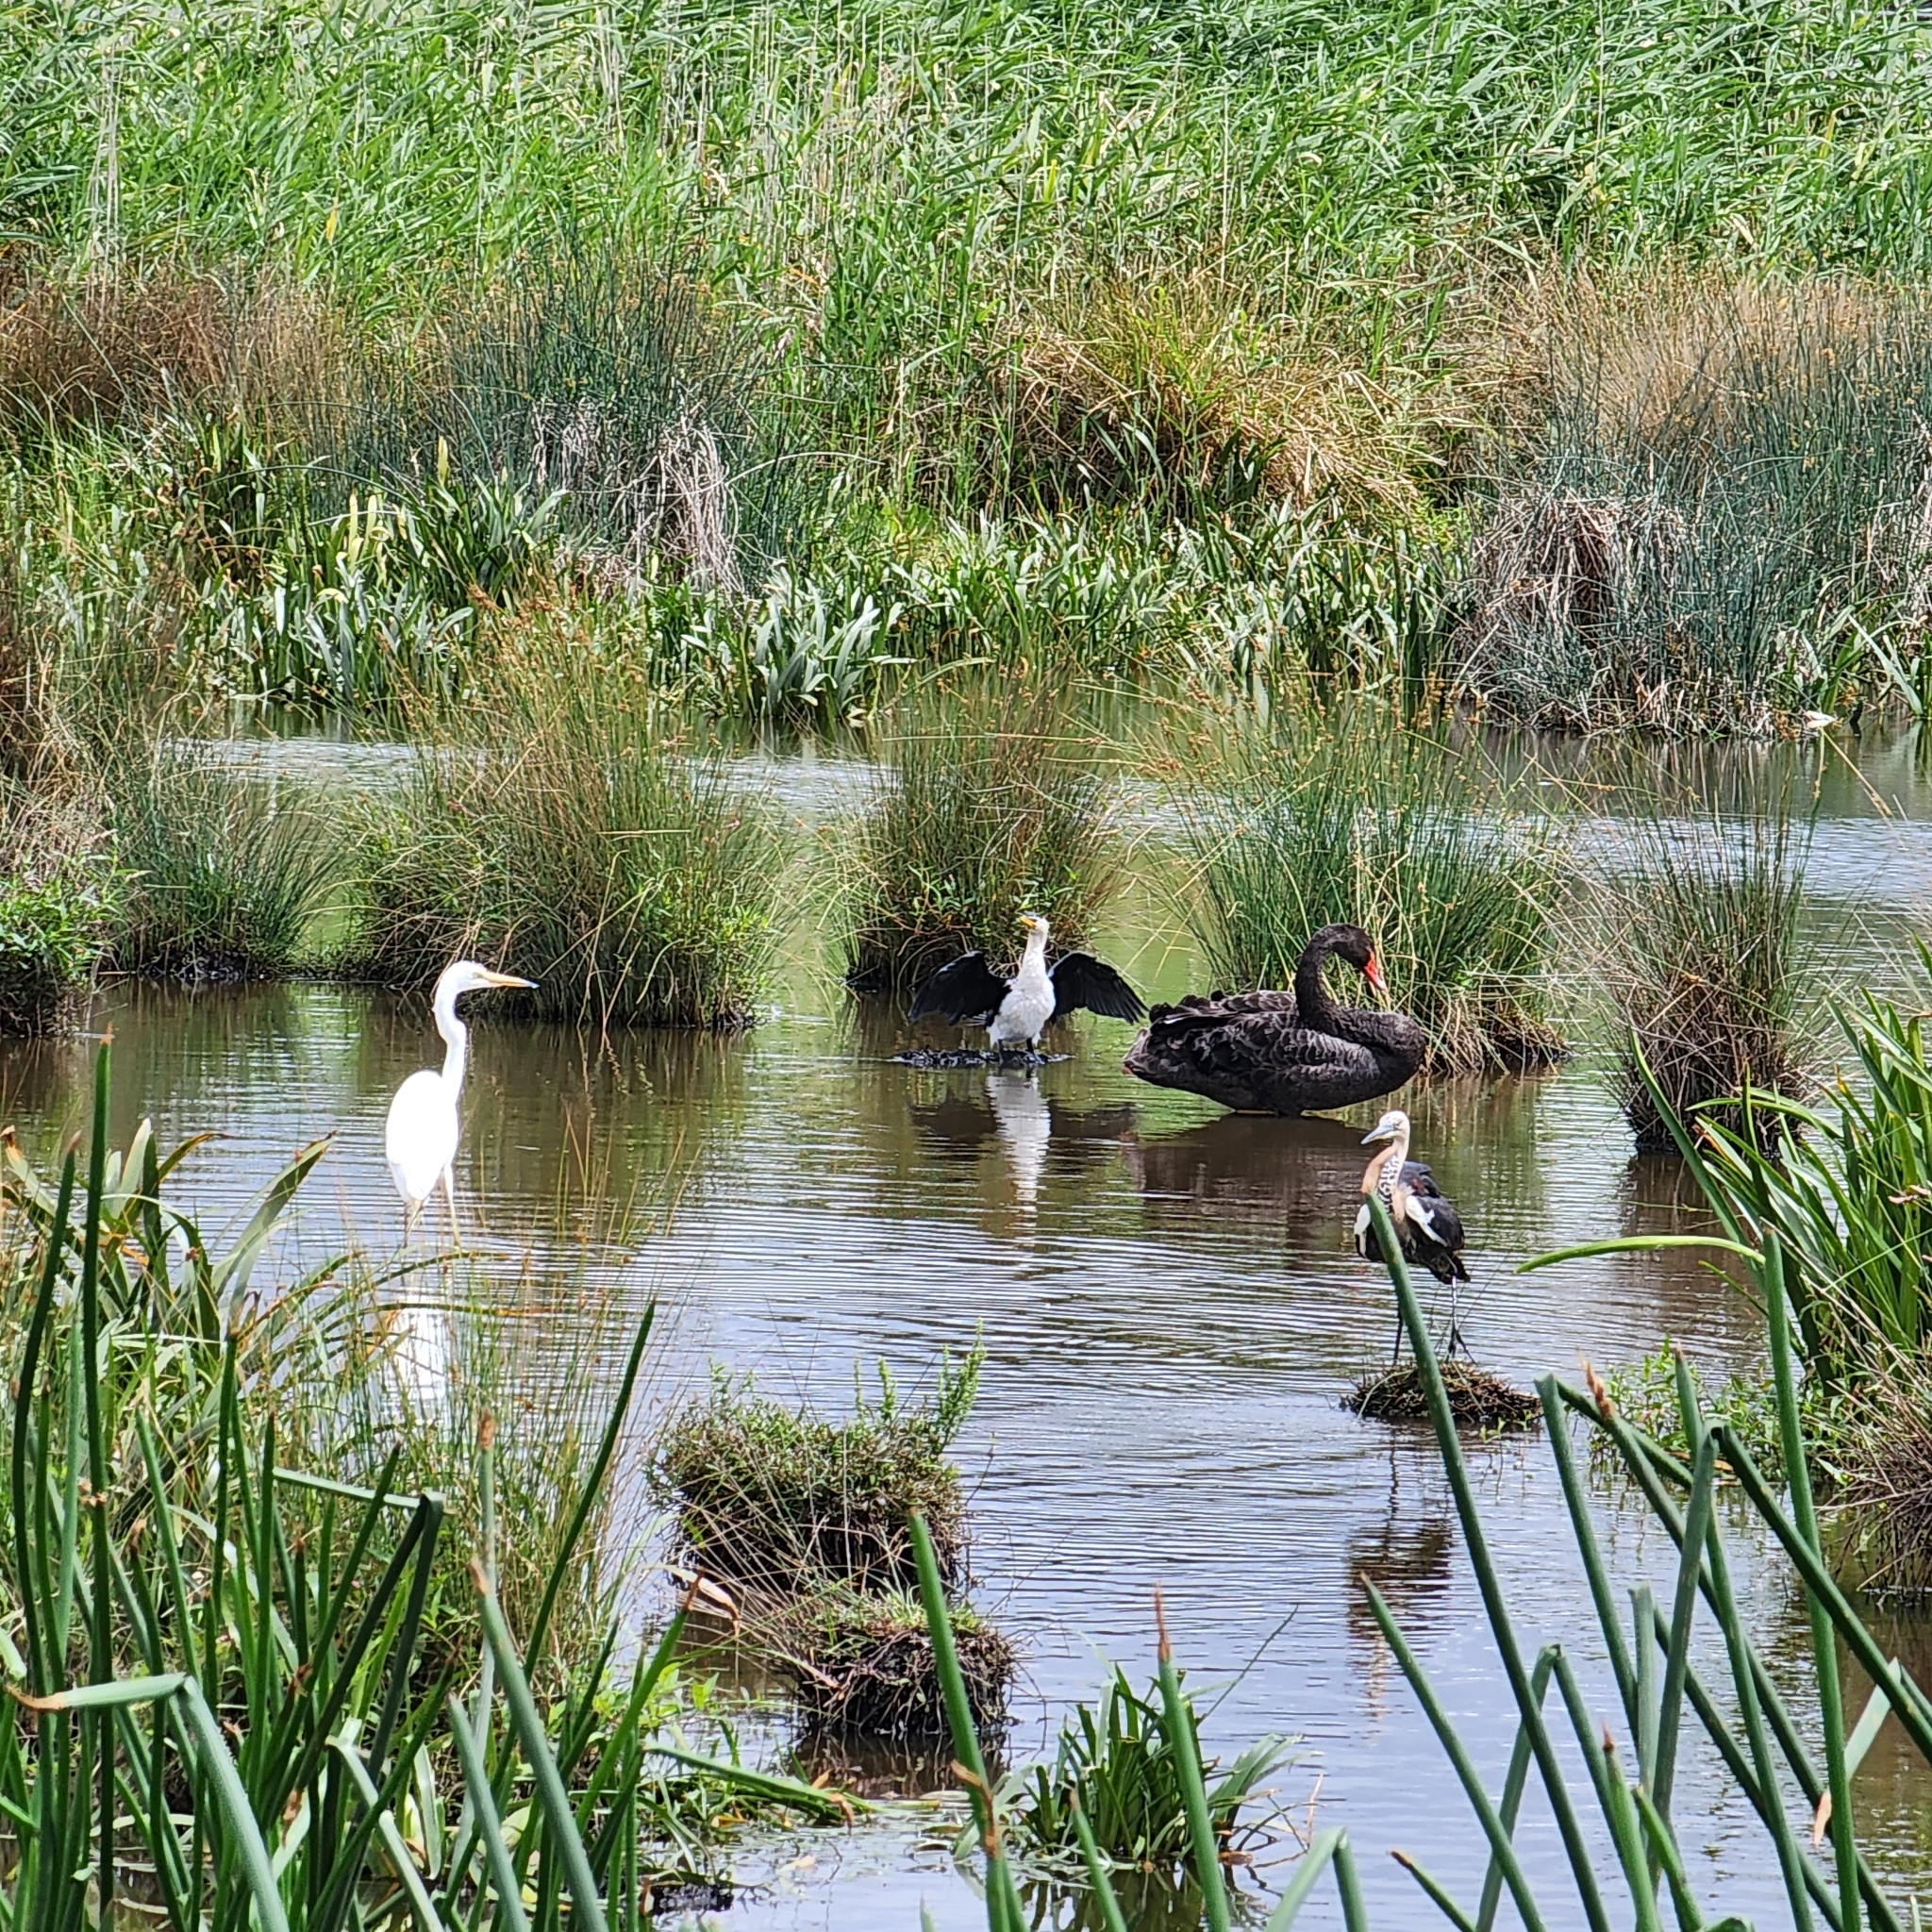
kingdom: Animalia
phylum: Chordata
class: Aves
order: Anseriformes
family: Anatidae
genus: Cygnus
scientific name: Cygnus atratus
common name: Black swan
